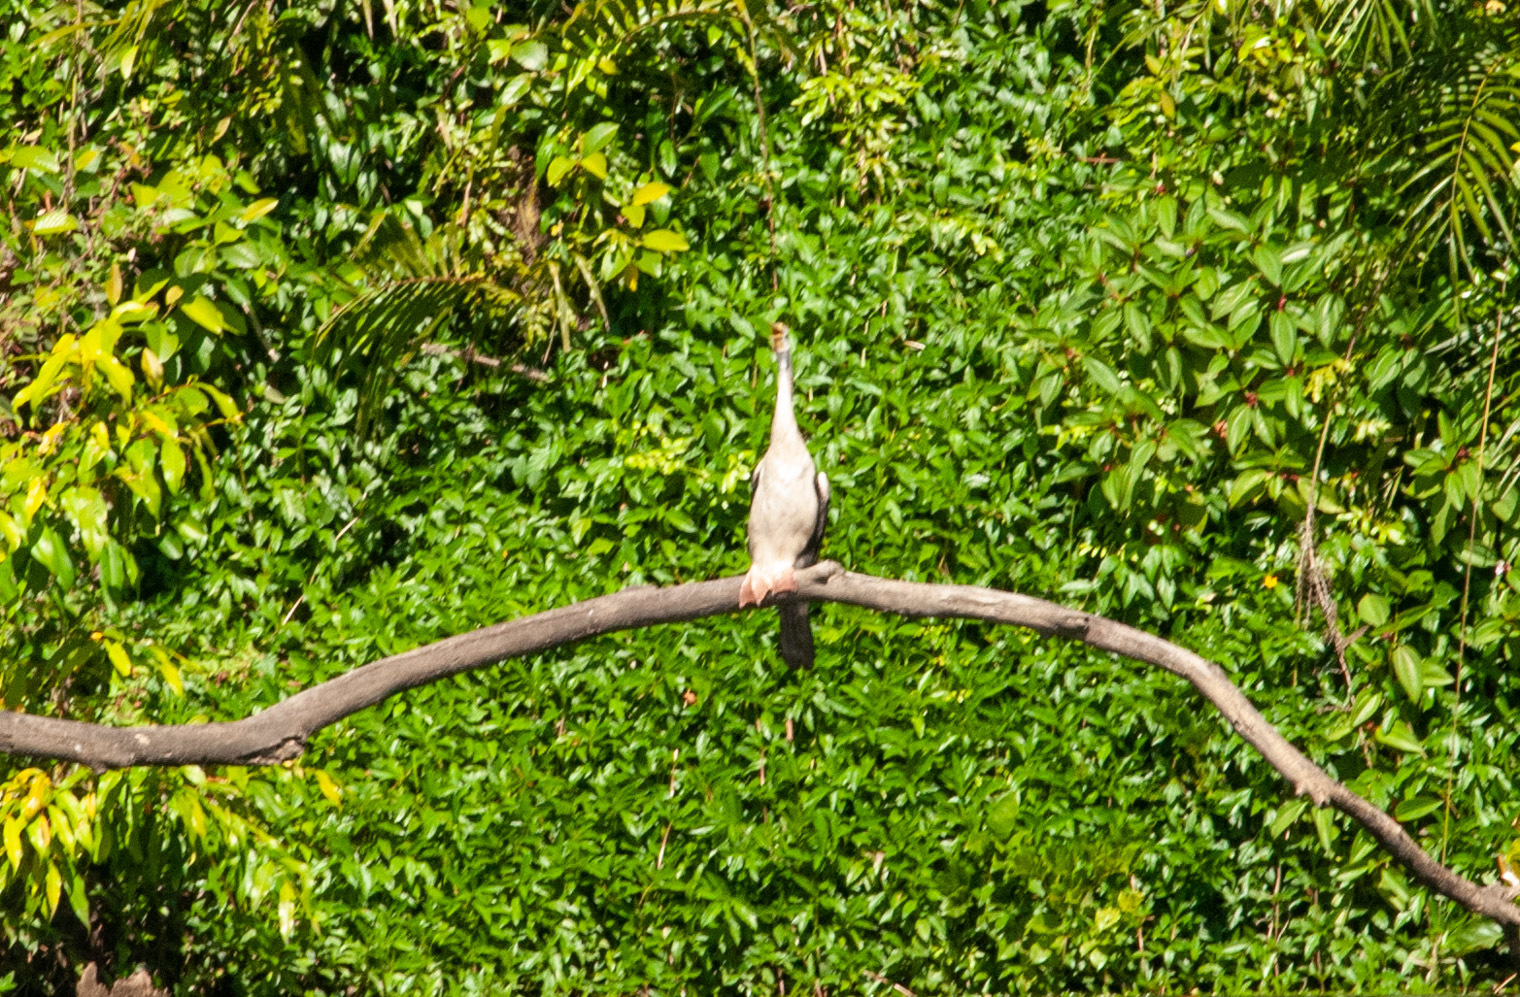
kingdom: Animalia
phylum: Chordata
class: Aves
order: Suliformes
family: Anhingidae
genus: Anhinga
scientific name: Anhinga novaehollandiae
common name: Australasian darter
